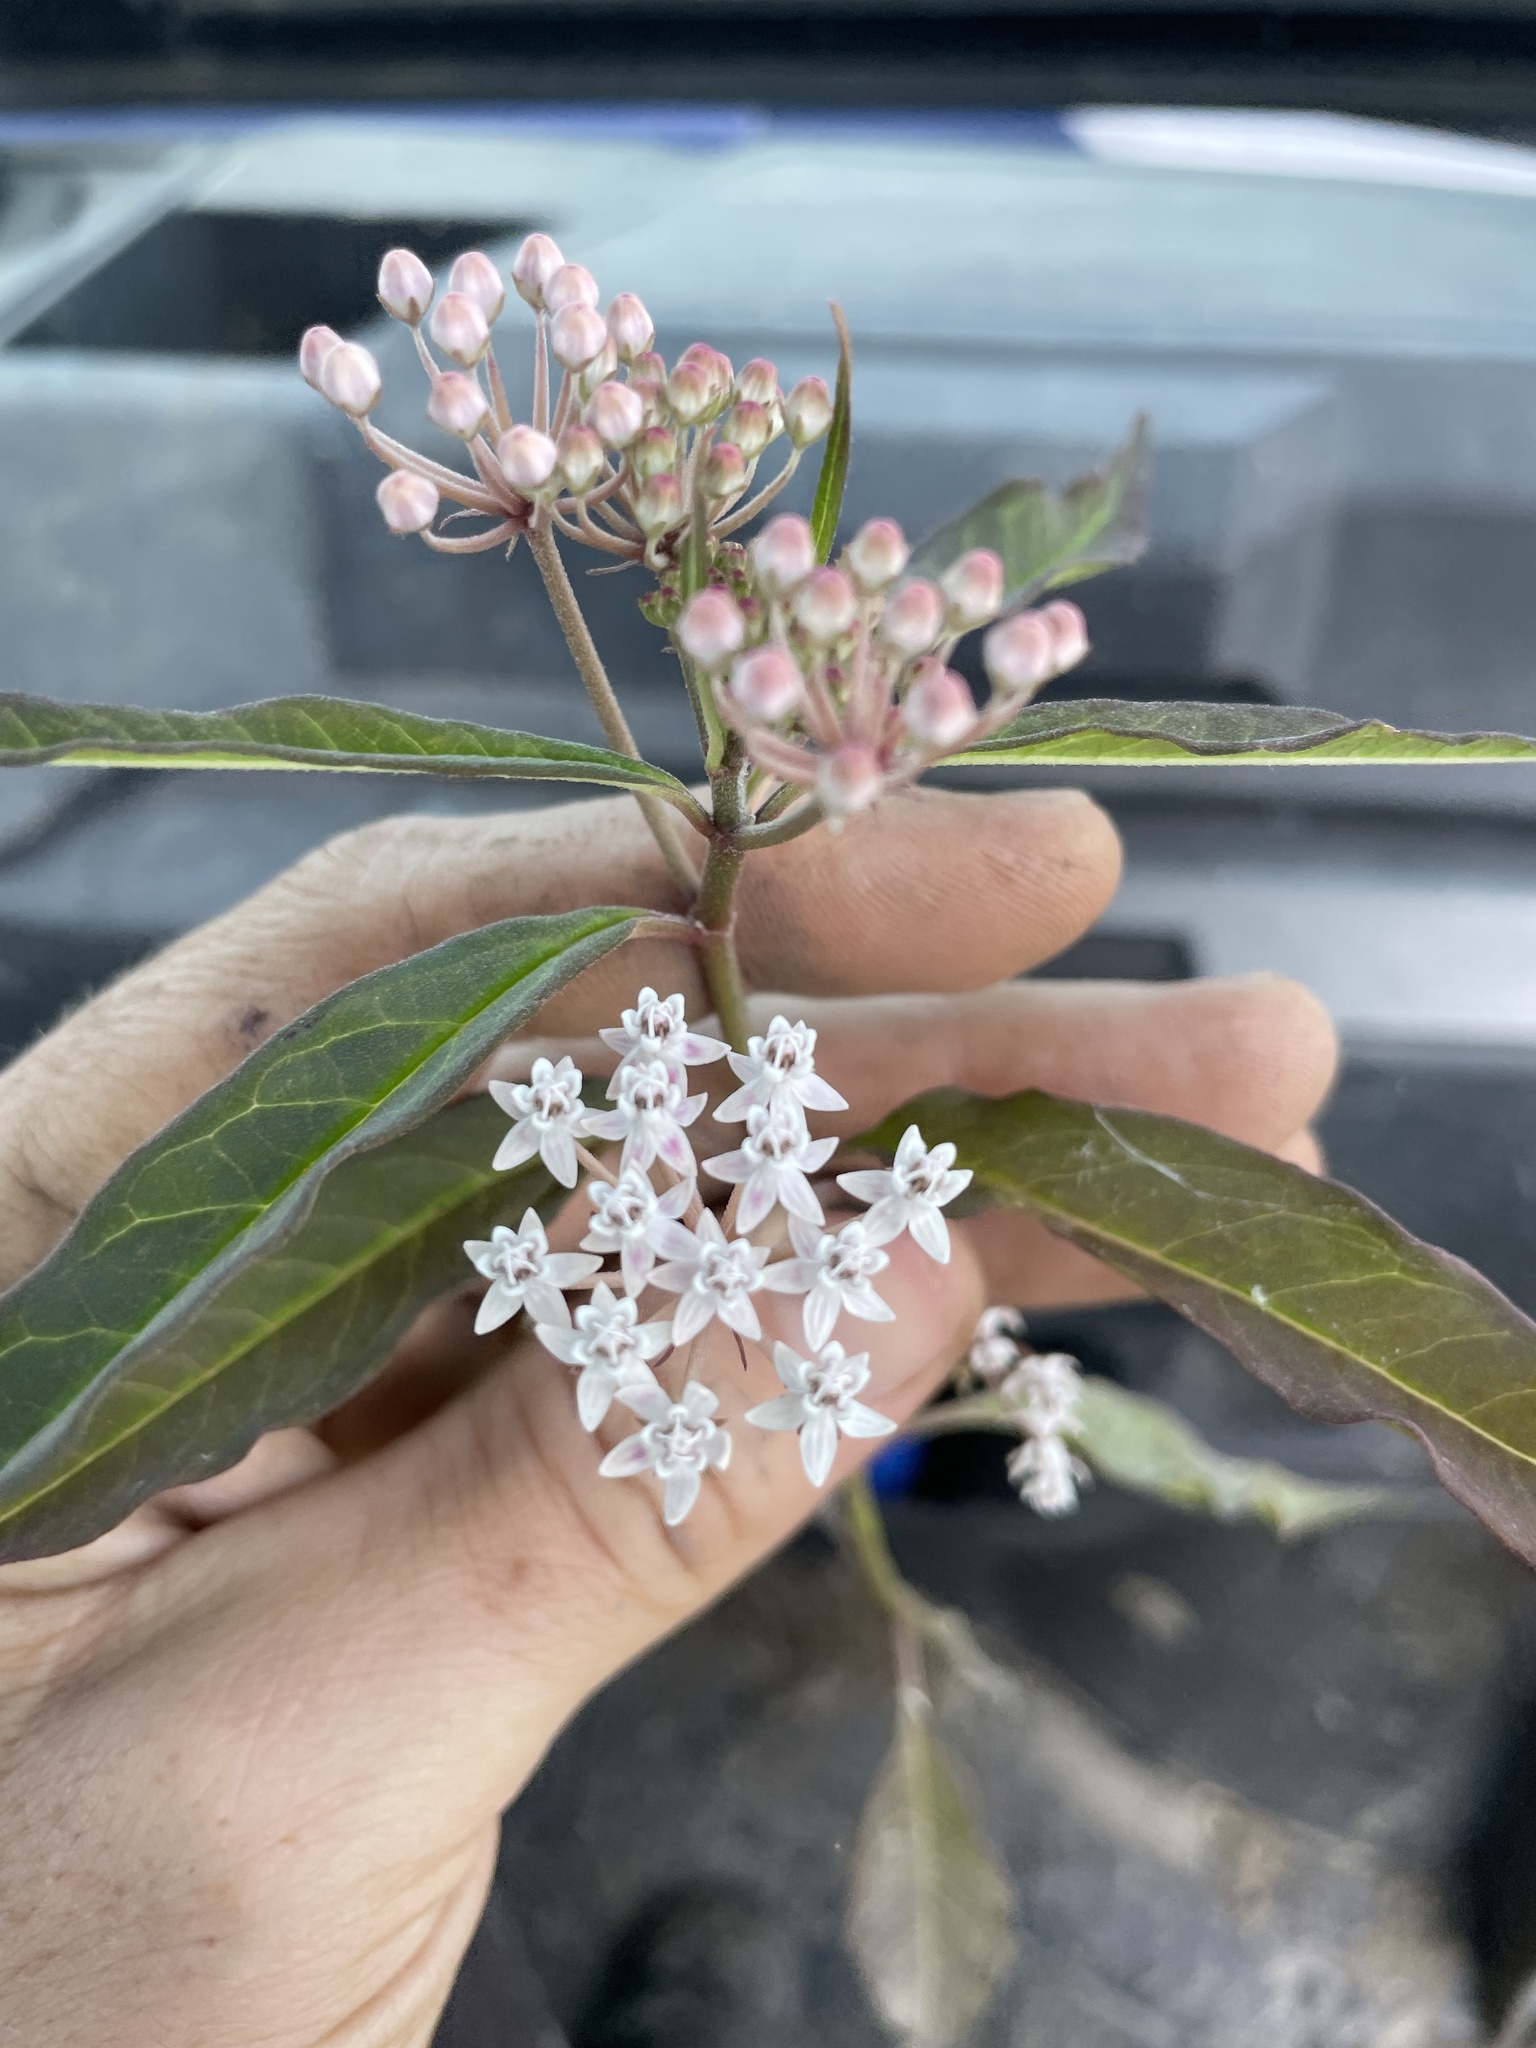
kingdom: Plantae
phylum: Tracheophyta
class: Magnoliopsida
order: Gentianales
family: Apocynaceae
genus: Asclepias
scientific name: Asclepias perennis
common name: Smooth-seed milkweed
